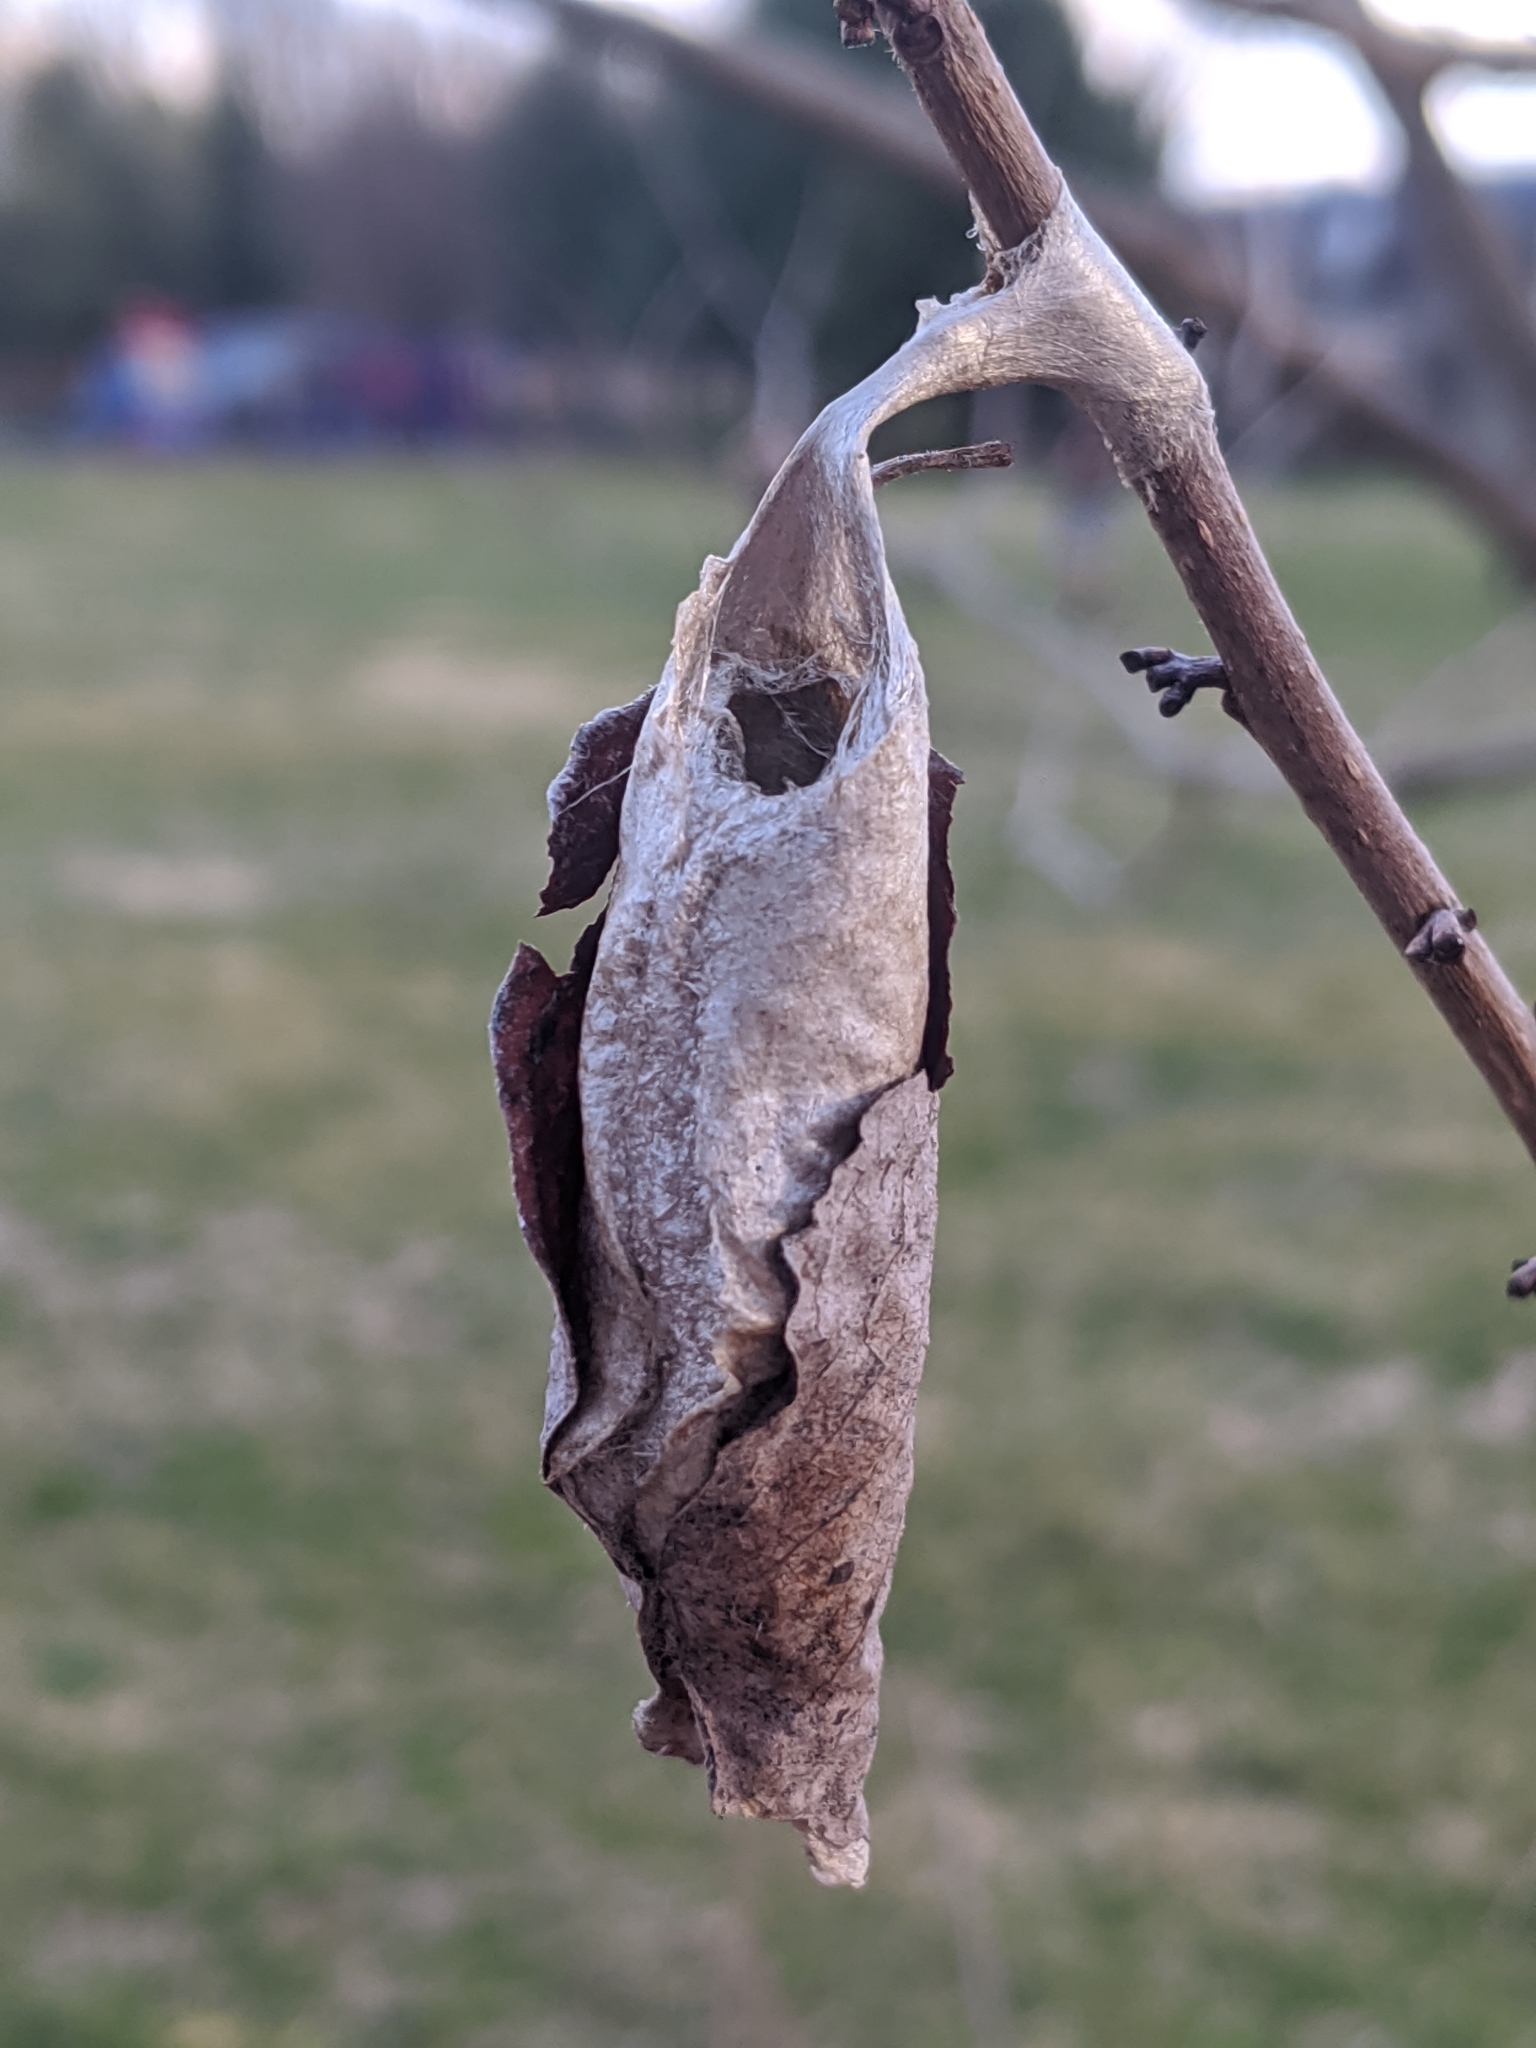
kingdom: Animalia
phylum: Arthropoda
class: Insecta
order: Lepidoptera
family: Saturniidae
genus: Callosamia
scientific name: Callosamia promethea
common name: Promethea silkmoth
